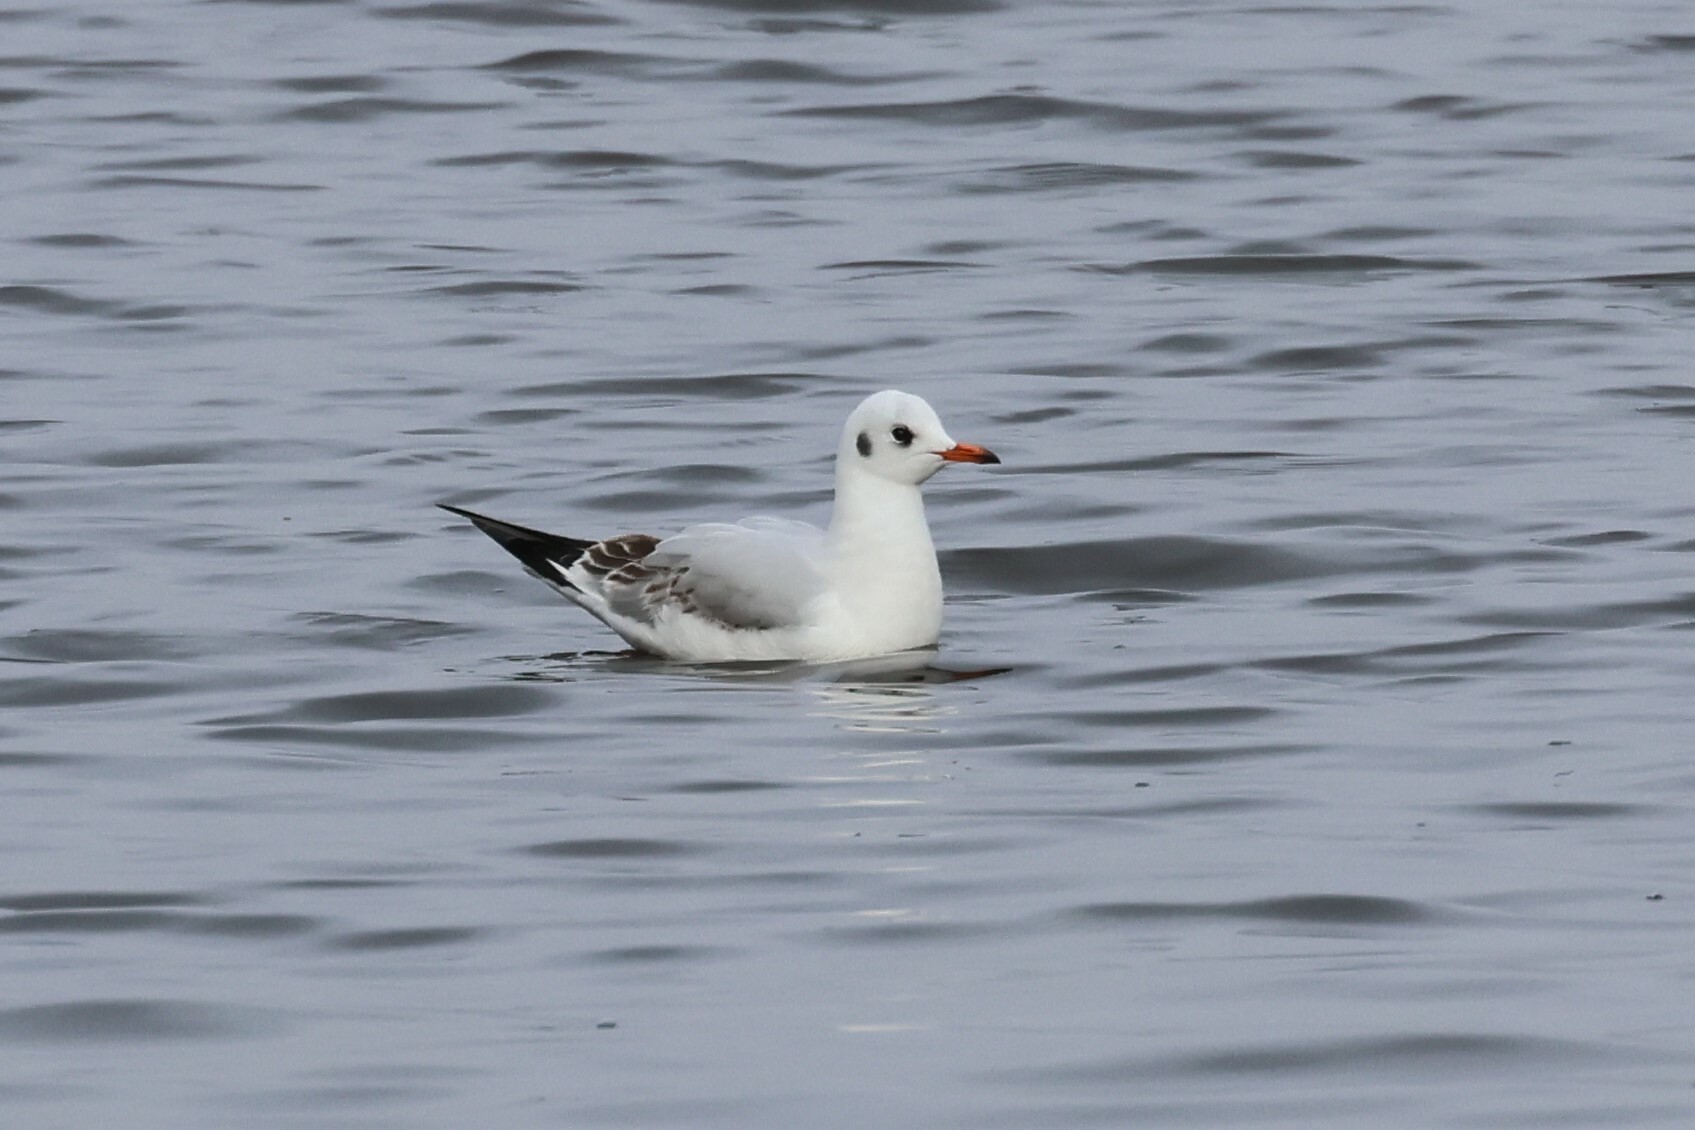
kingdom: Animalia
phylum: Chordata
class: Aves
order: Charadriiformes
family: Laridae
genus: Chroicocephalus
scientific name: Chroicocephalus ridibundus
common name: Black-headed gull
